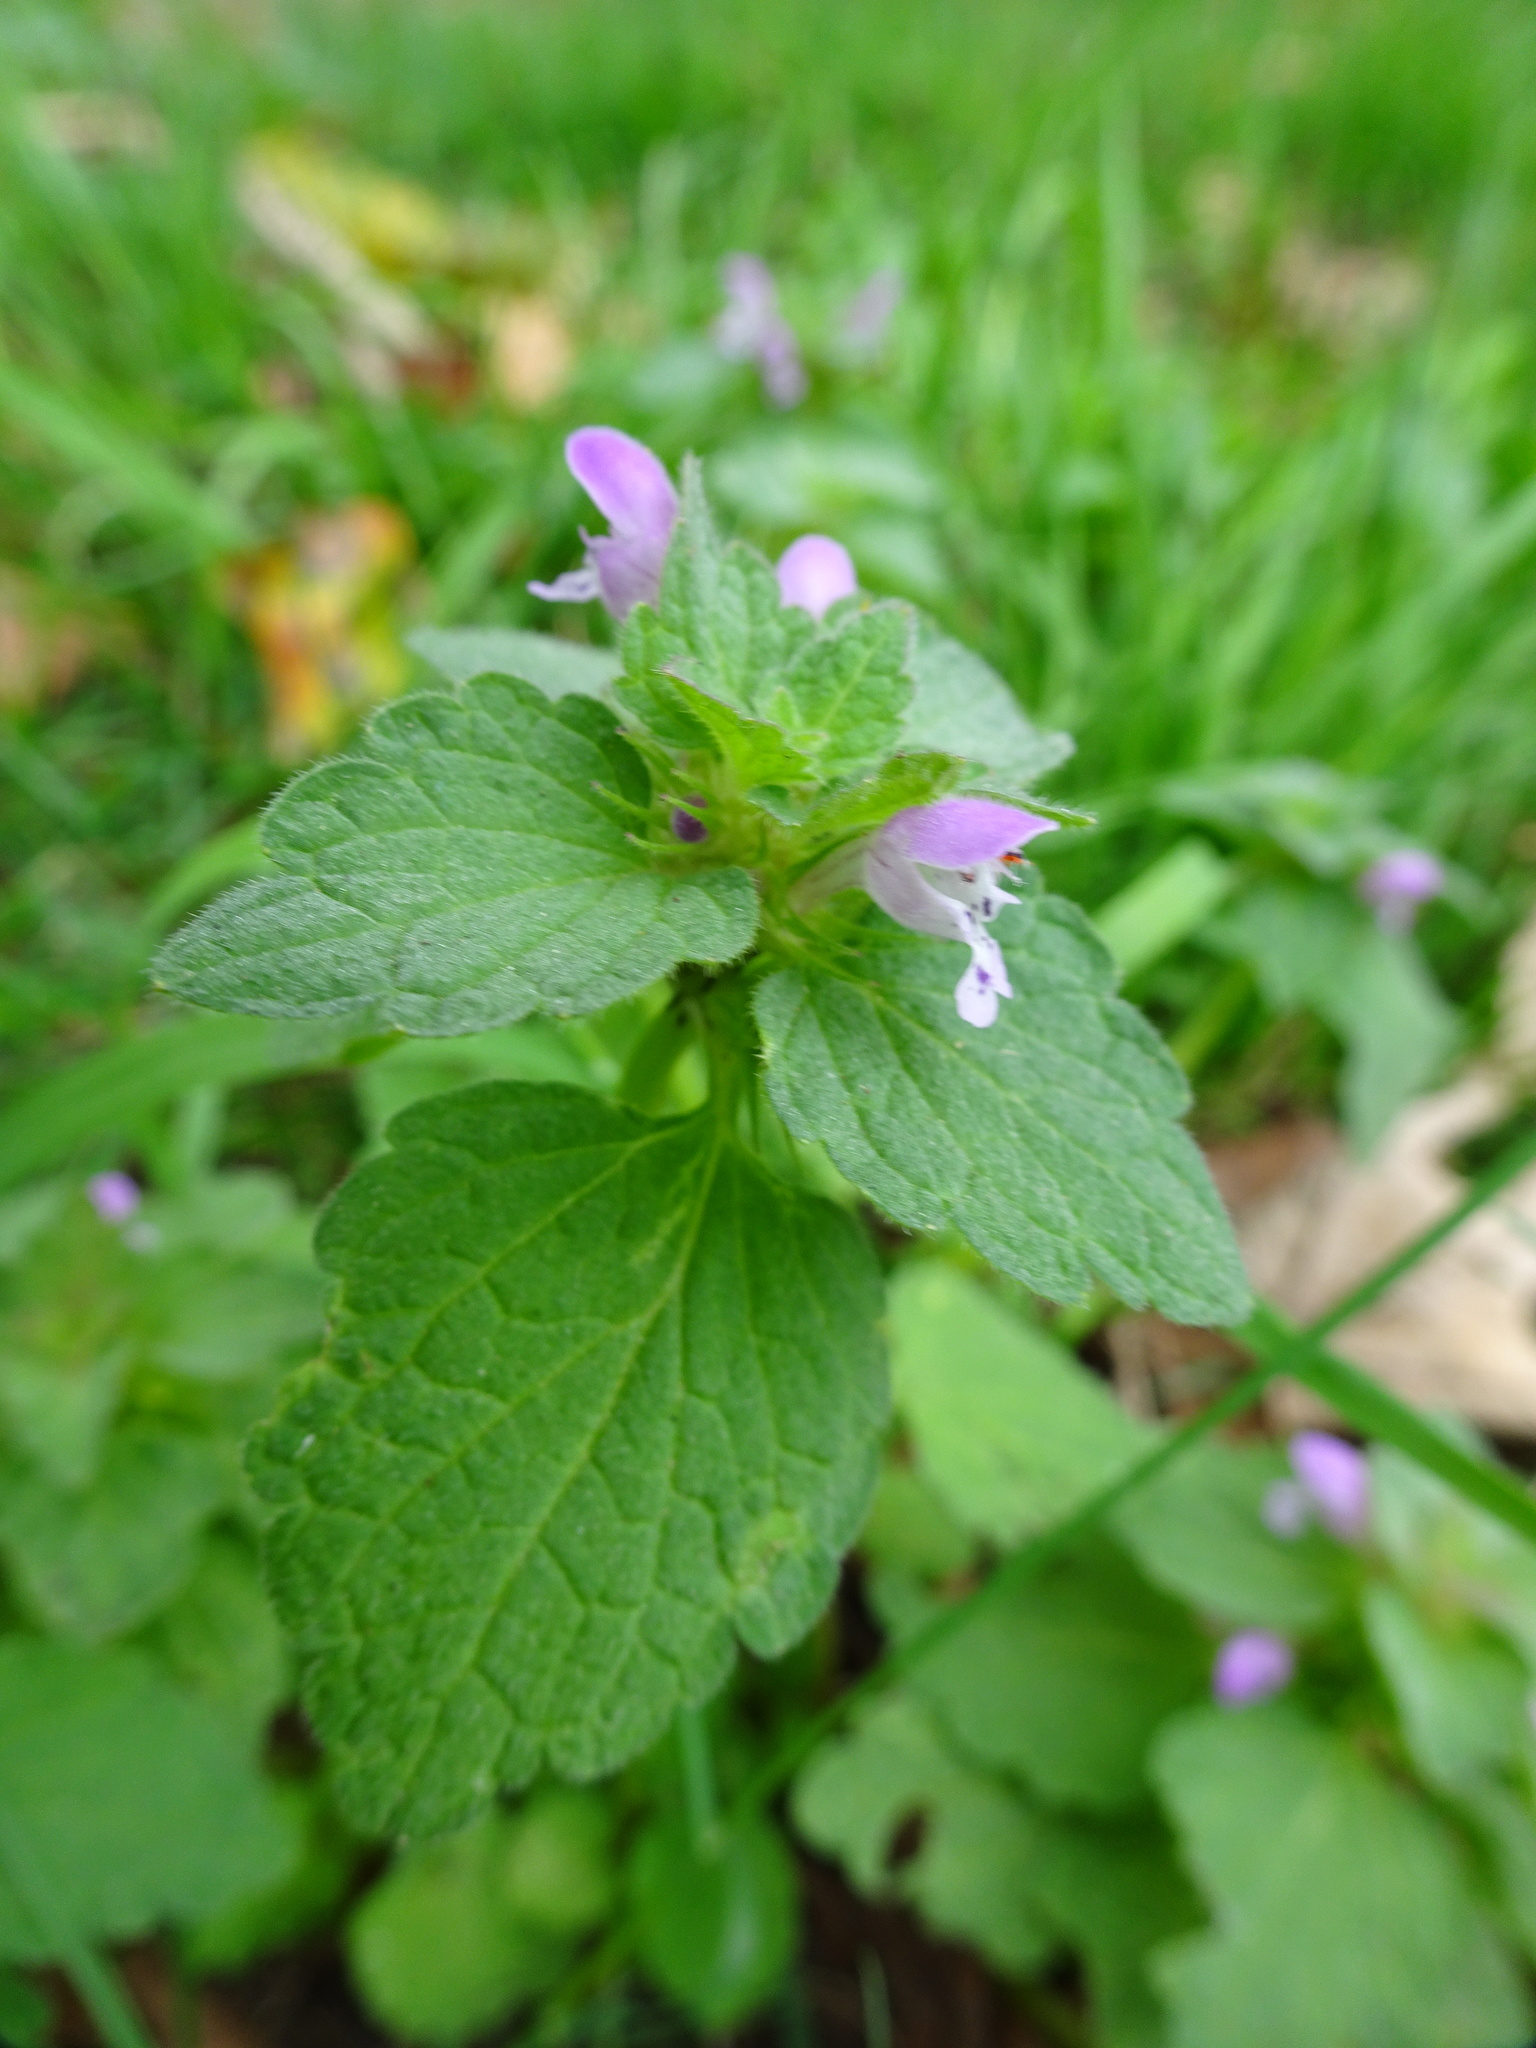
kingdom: Plantae
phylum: Tracheophyta
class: Magnoliopsida
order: Lamiales
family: Lamiaceae
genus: Lamium
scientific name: Lamium purpureum
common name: Red dead-nettle
